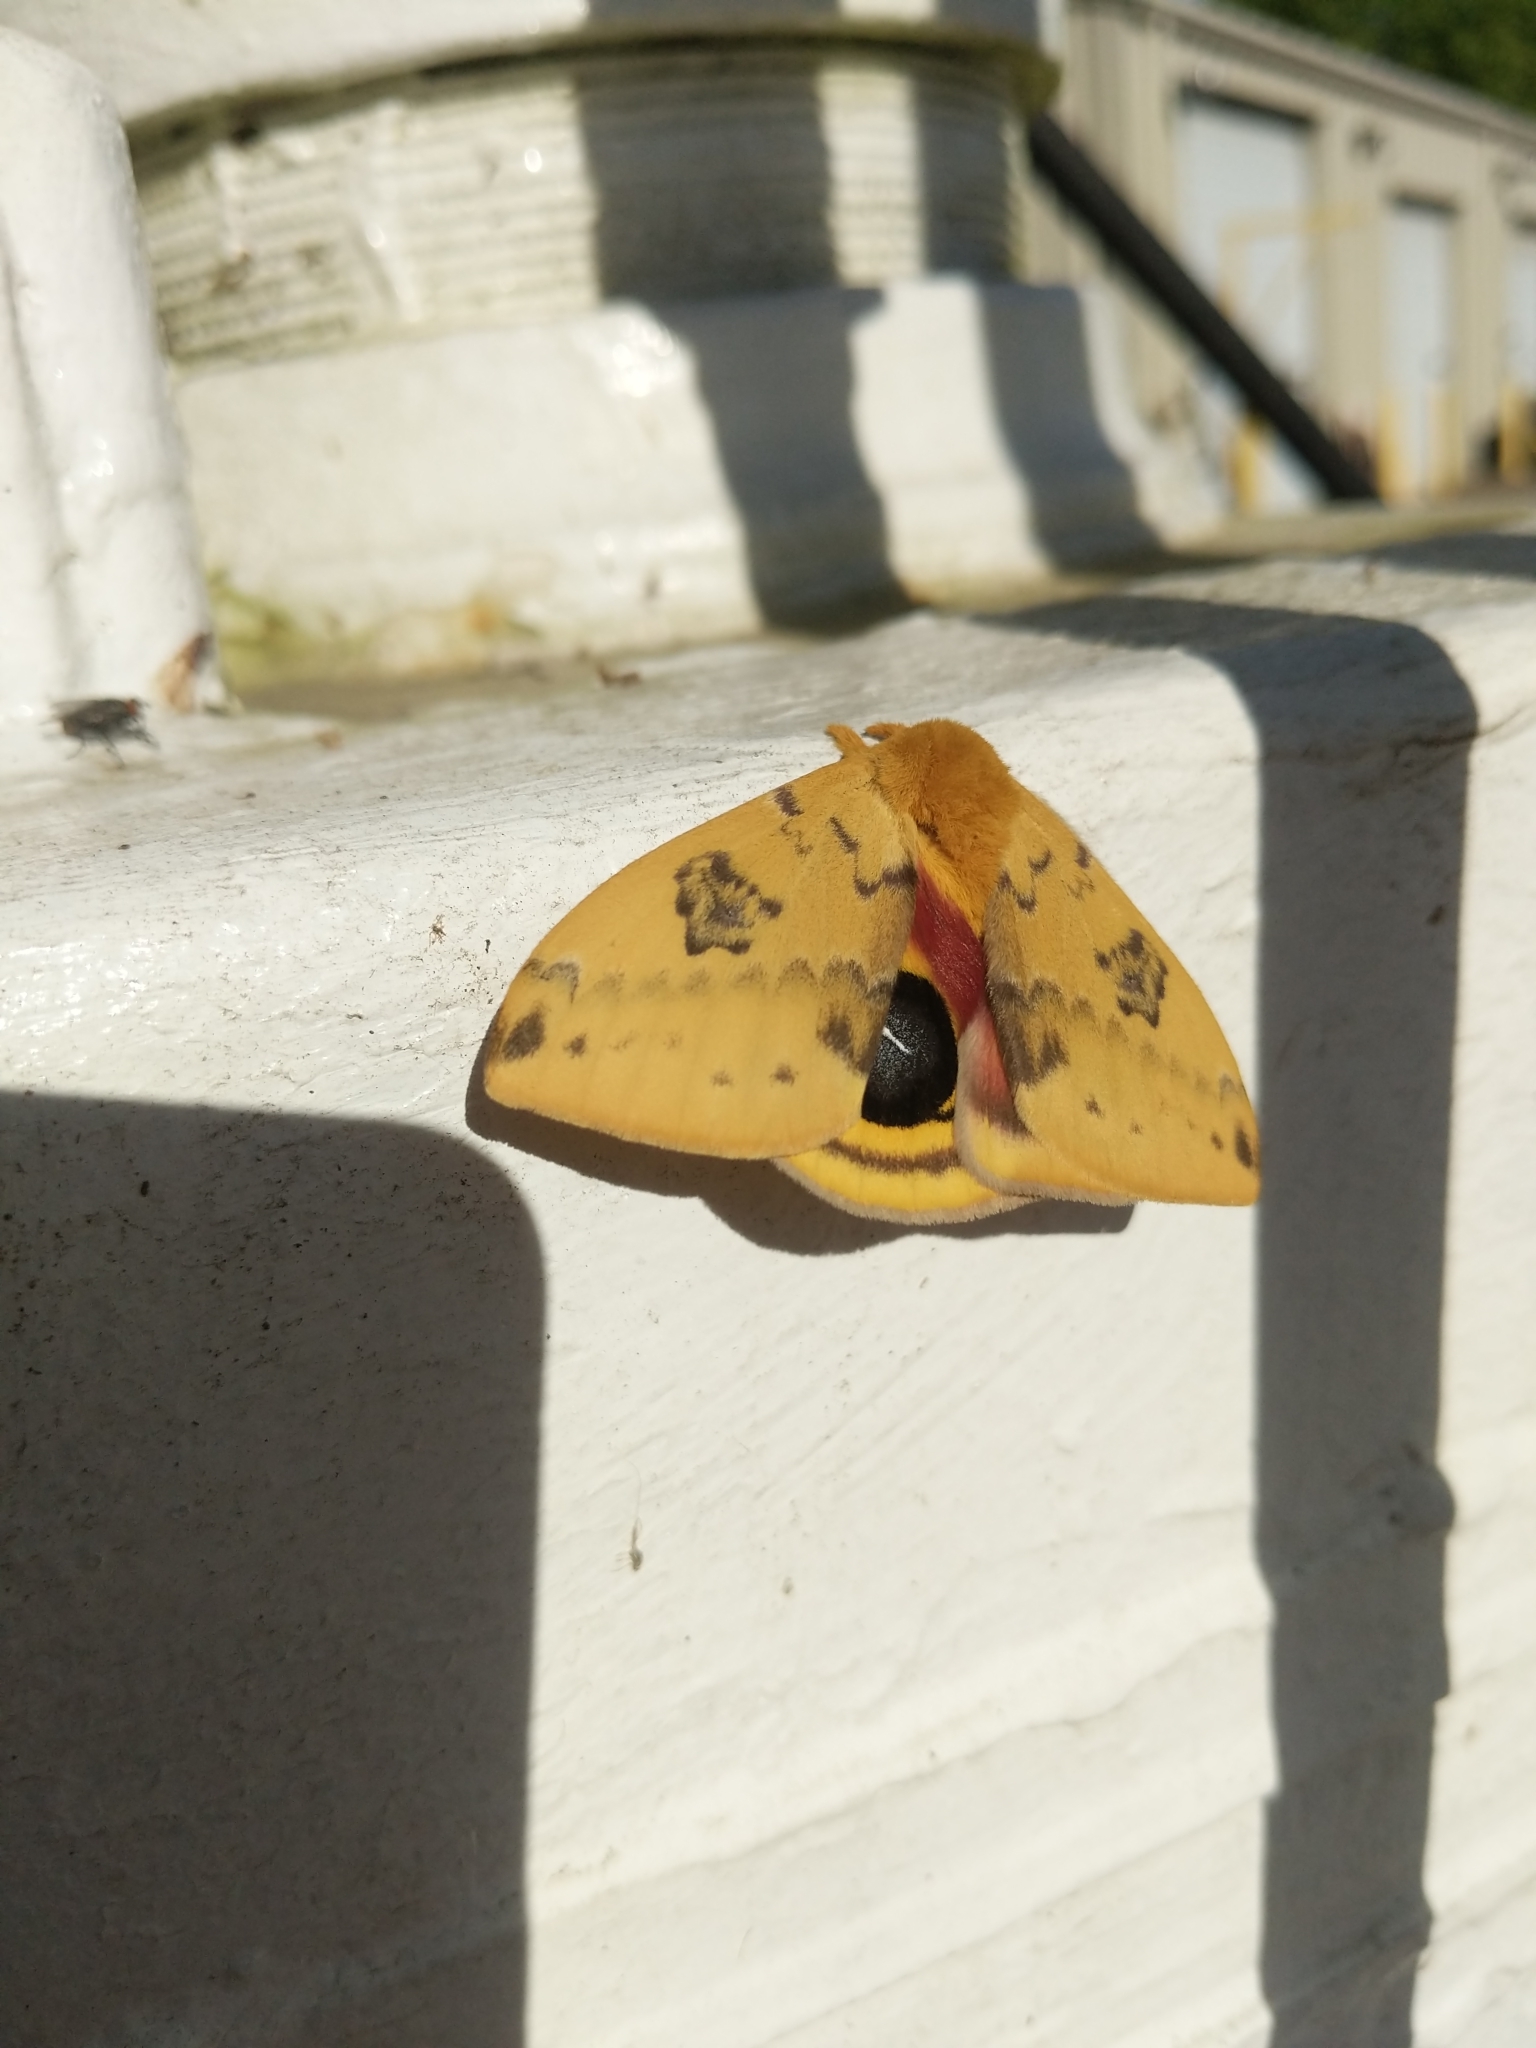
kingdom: Animalia
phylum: Arthropoda
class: Insecta
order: Lepidoptera
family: Saturniidae
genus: Automeris
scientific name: Automeris io
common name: Io moth
